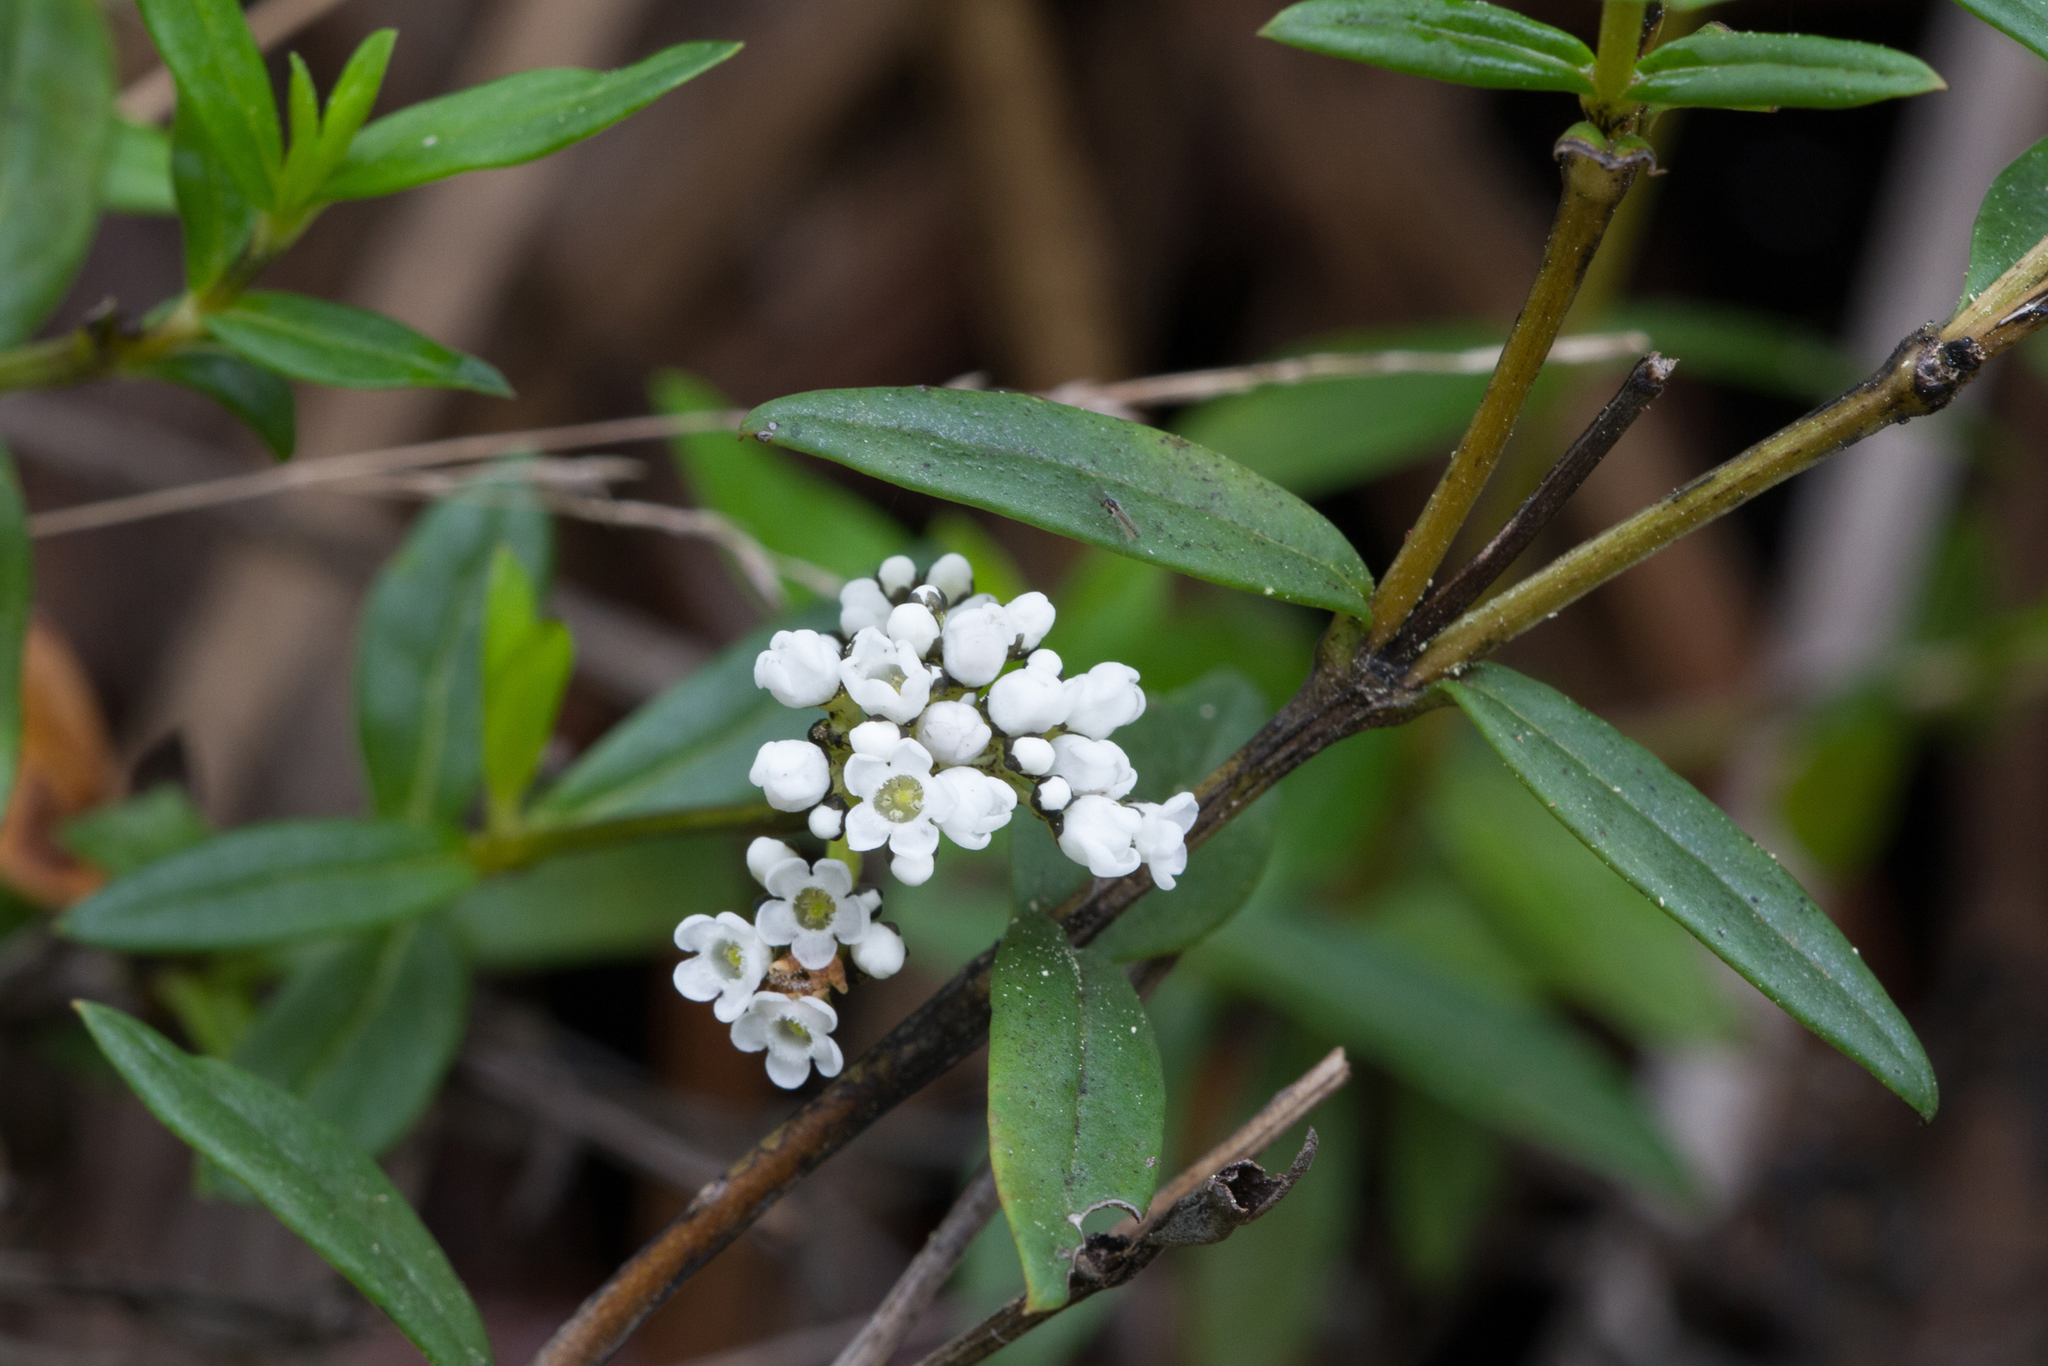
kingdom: Plantae
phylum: Tracheophyta
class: Magnoliopsida
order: Gentianales
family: Loganiaceae
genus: Logania
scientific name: Logania recurva
